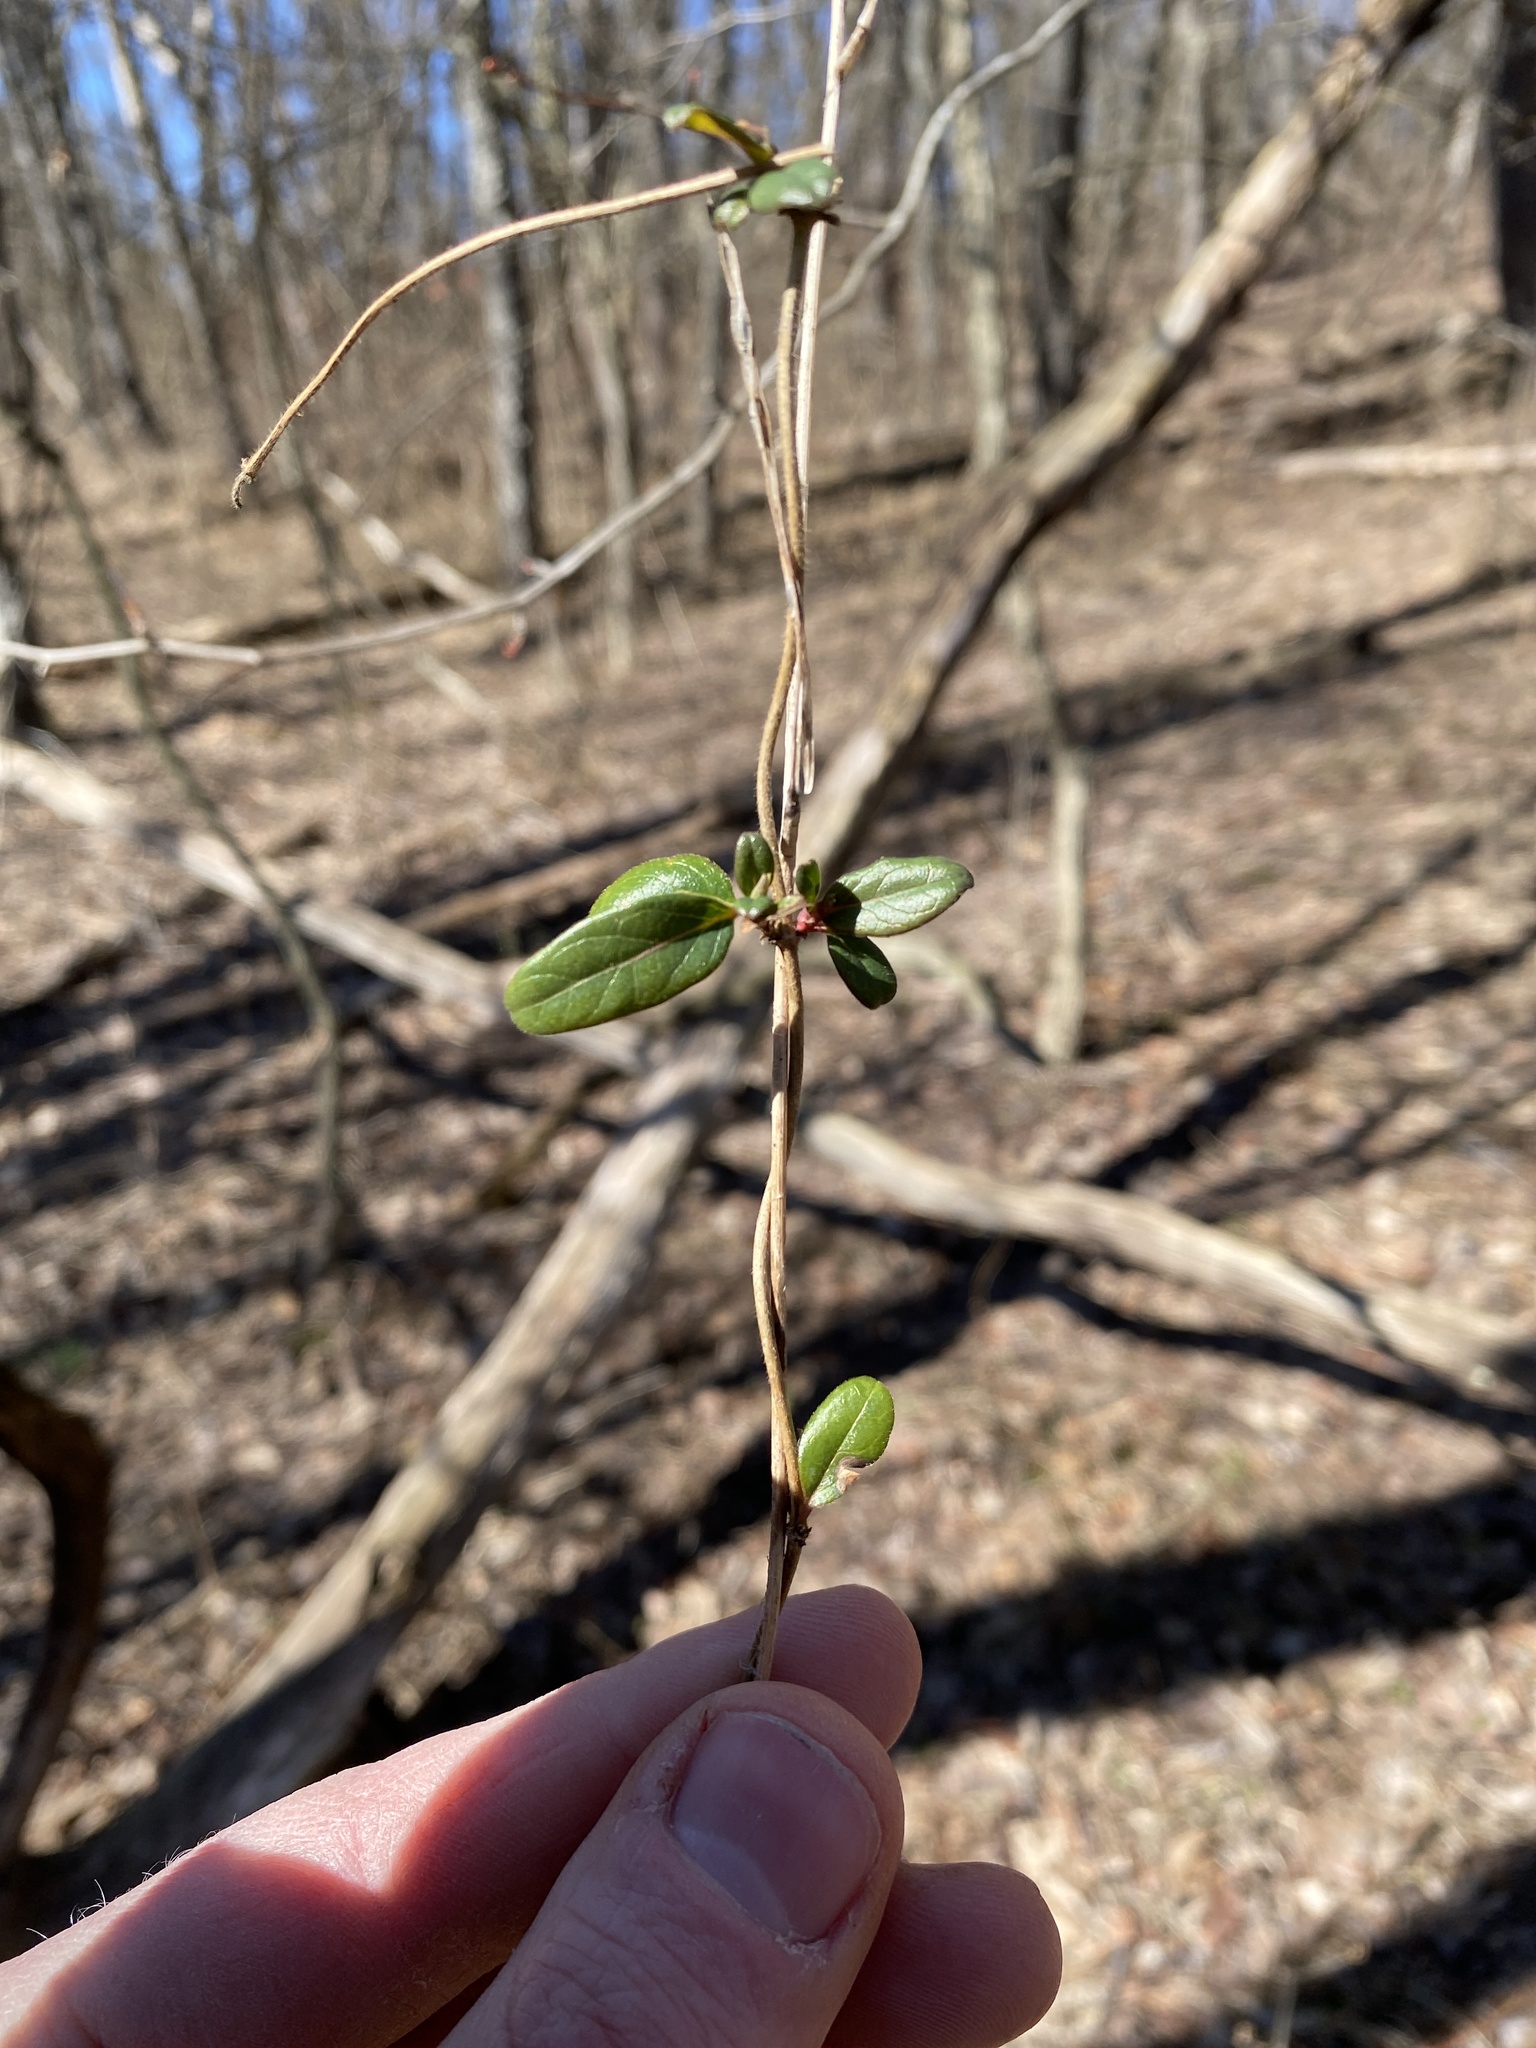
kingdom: Plantae
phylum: Tracheophyta
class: Magnoliopsida
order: Dipsacales
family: Caprifoliaceae
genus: Lonicera
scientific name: Lonicera japonica
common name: Japanese honeysuckle
